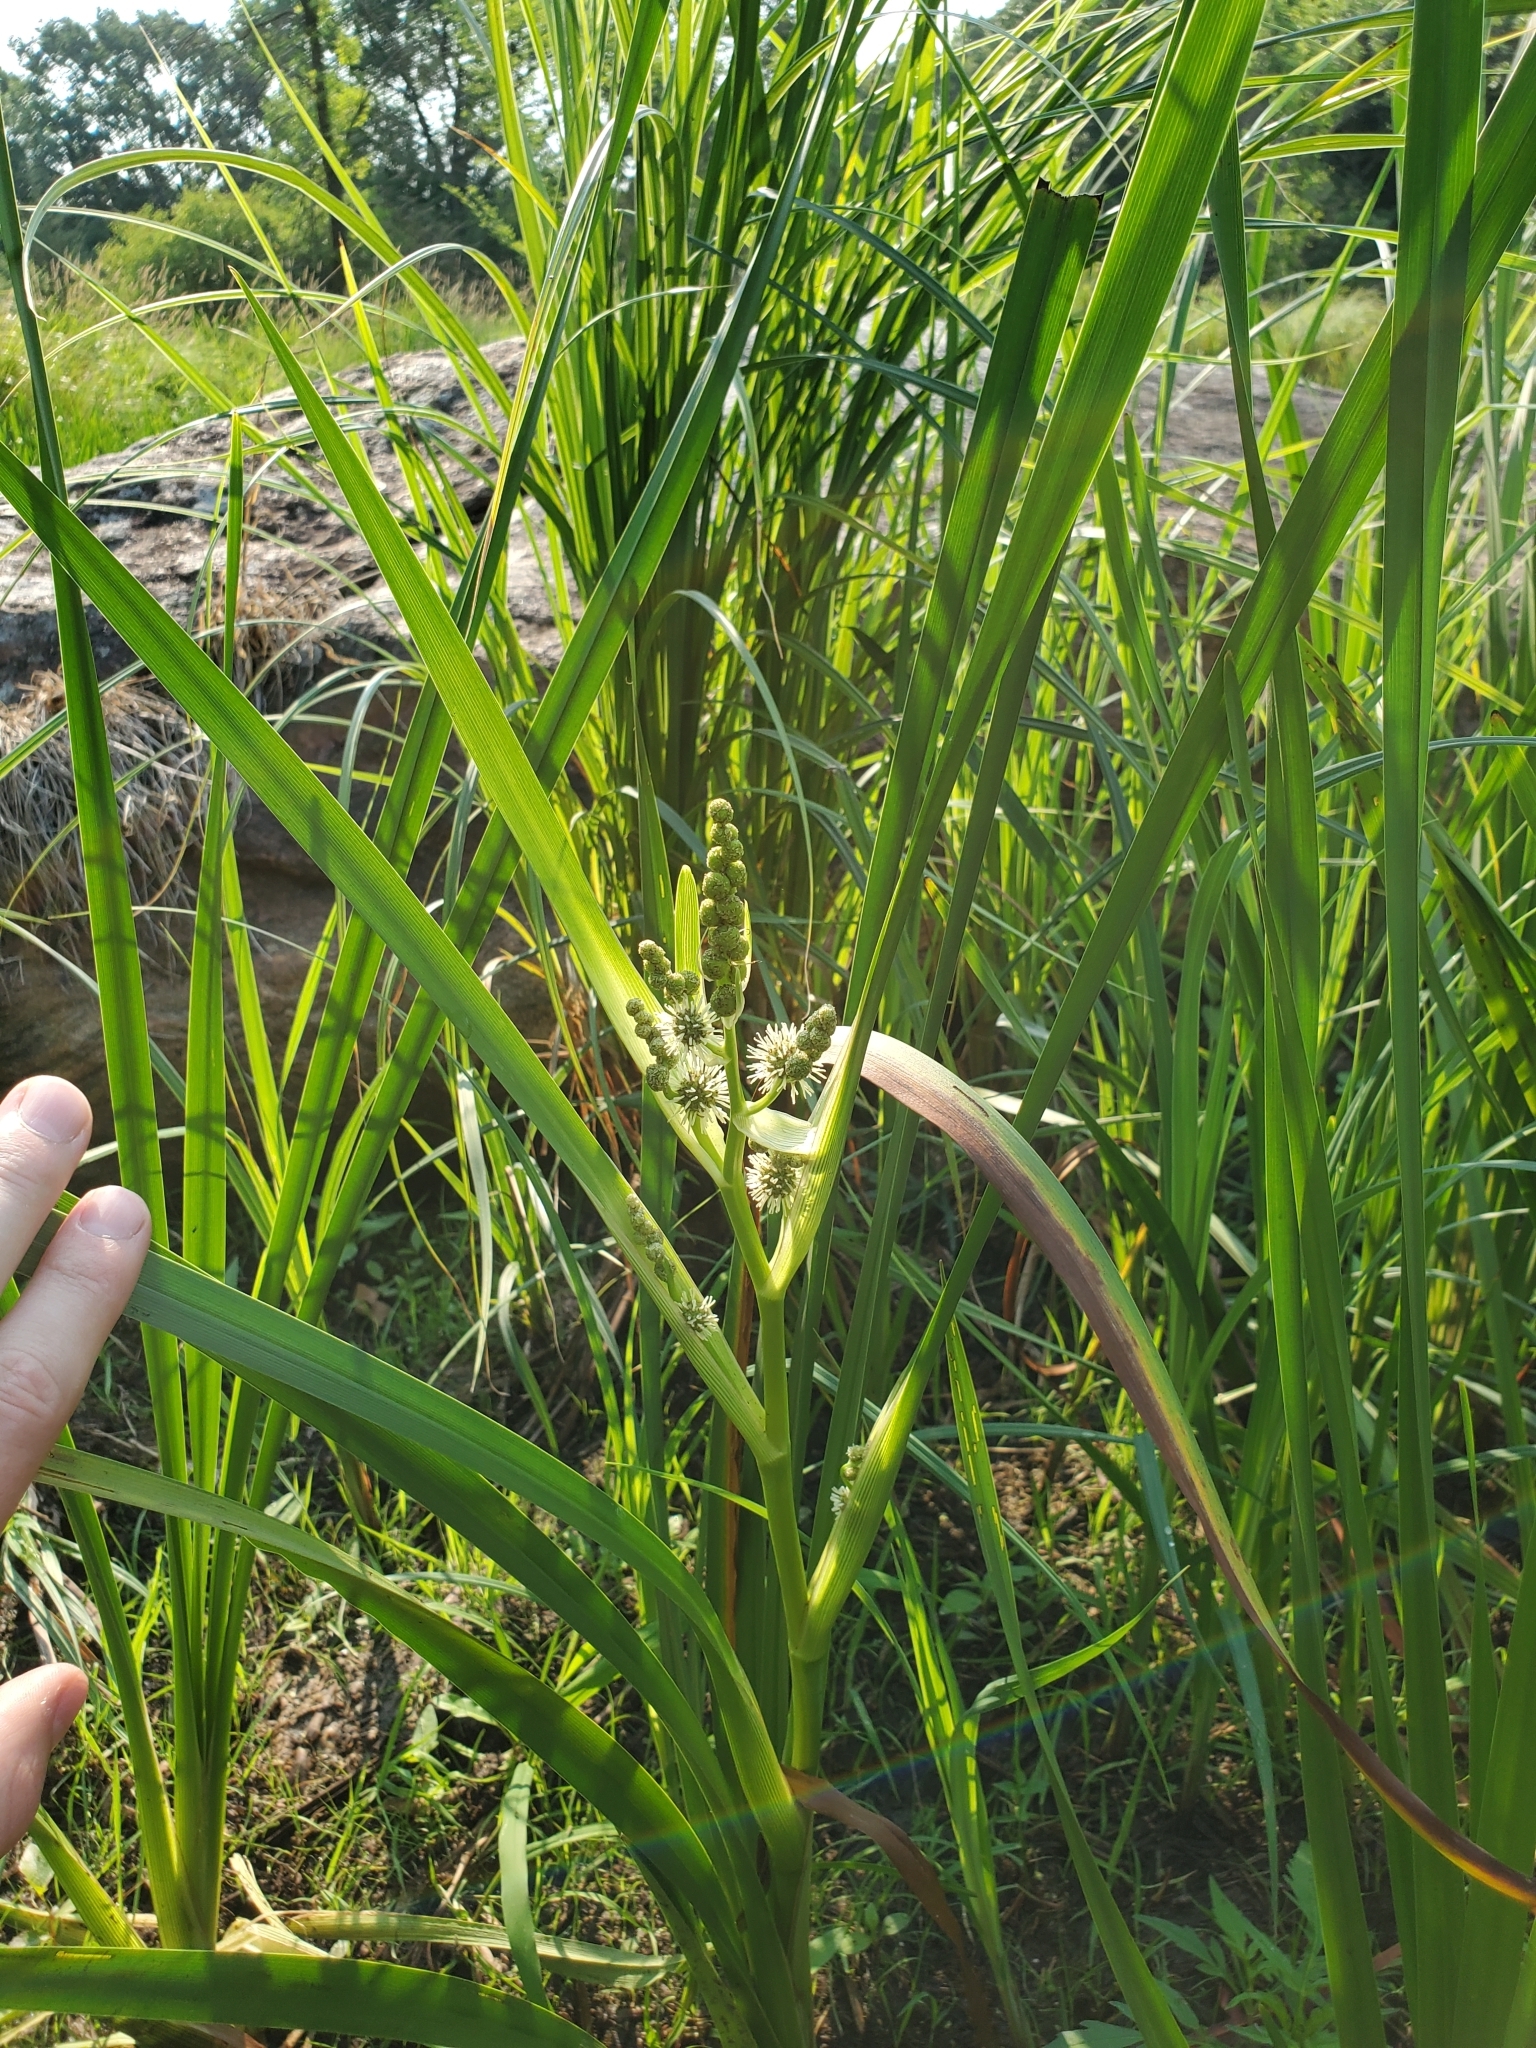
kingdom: Plantae
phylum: Tracheophyta
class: Liliopsida
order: Poales
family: Typhaceae
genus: Sparganium
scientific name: Sparganium eurycarpum
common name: Broad-fruited burreed
